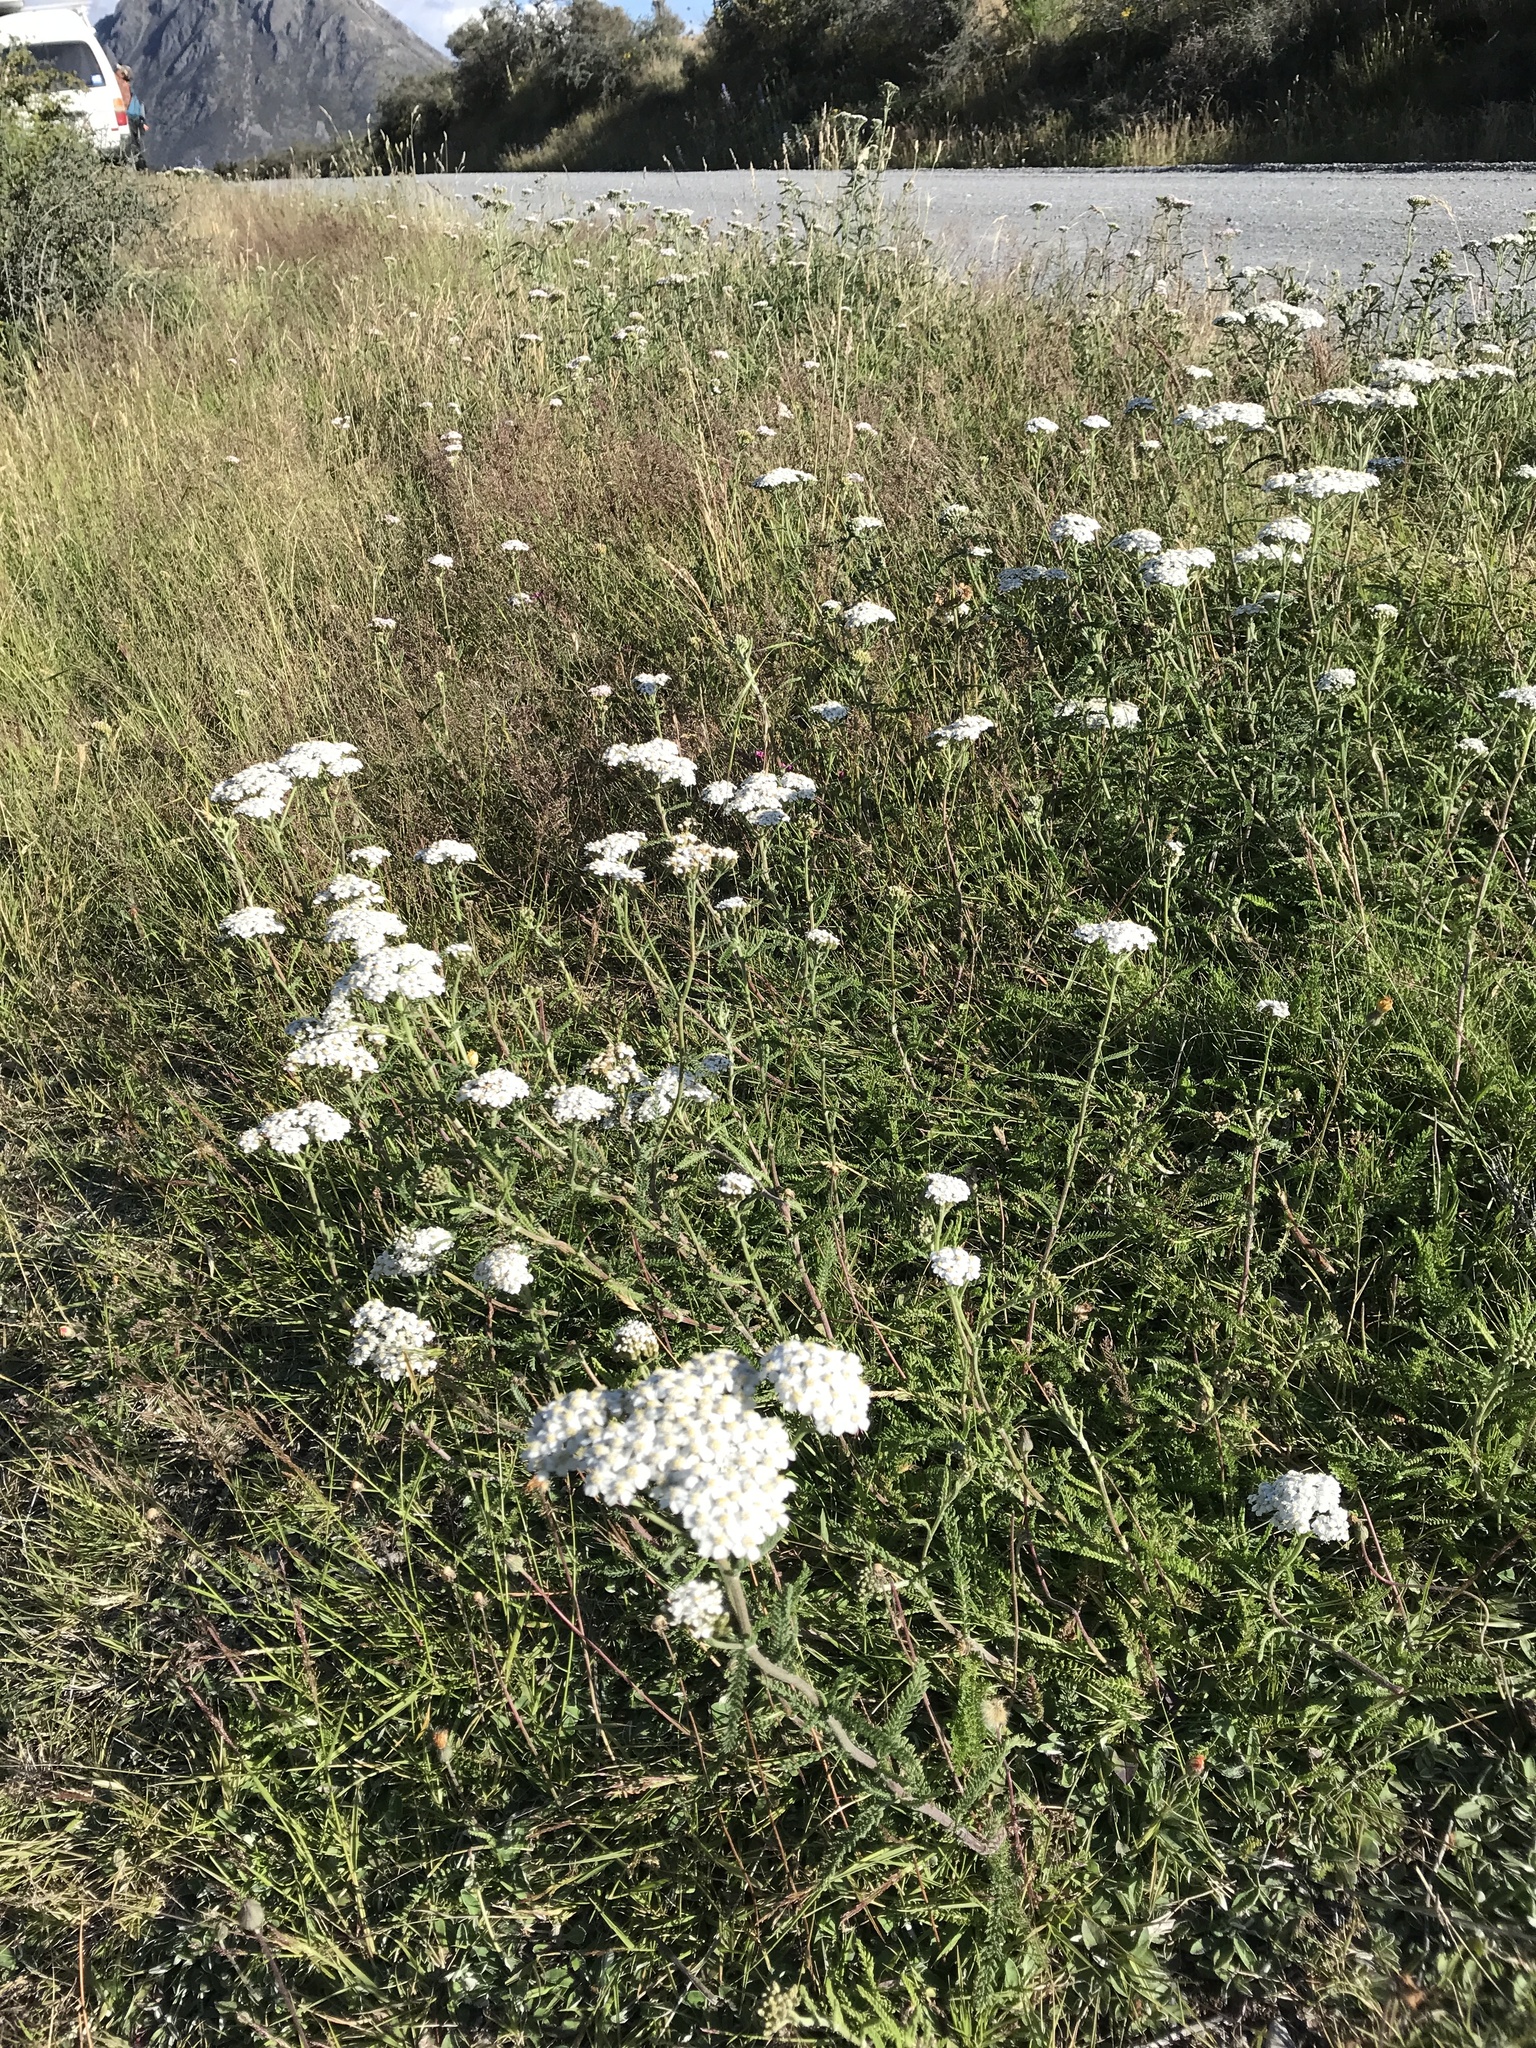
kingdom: Plantae
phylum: Tracheophyta
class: Magnoliopsida
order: Asterales
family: Asteraceae
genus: Achillea
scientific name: Achillea millefolium
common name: Yarrow
